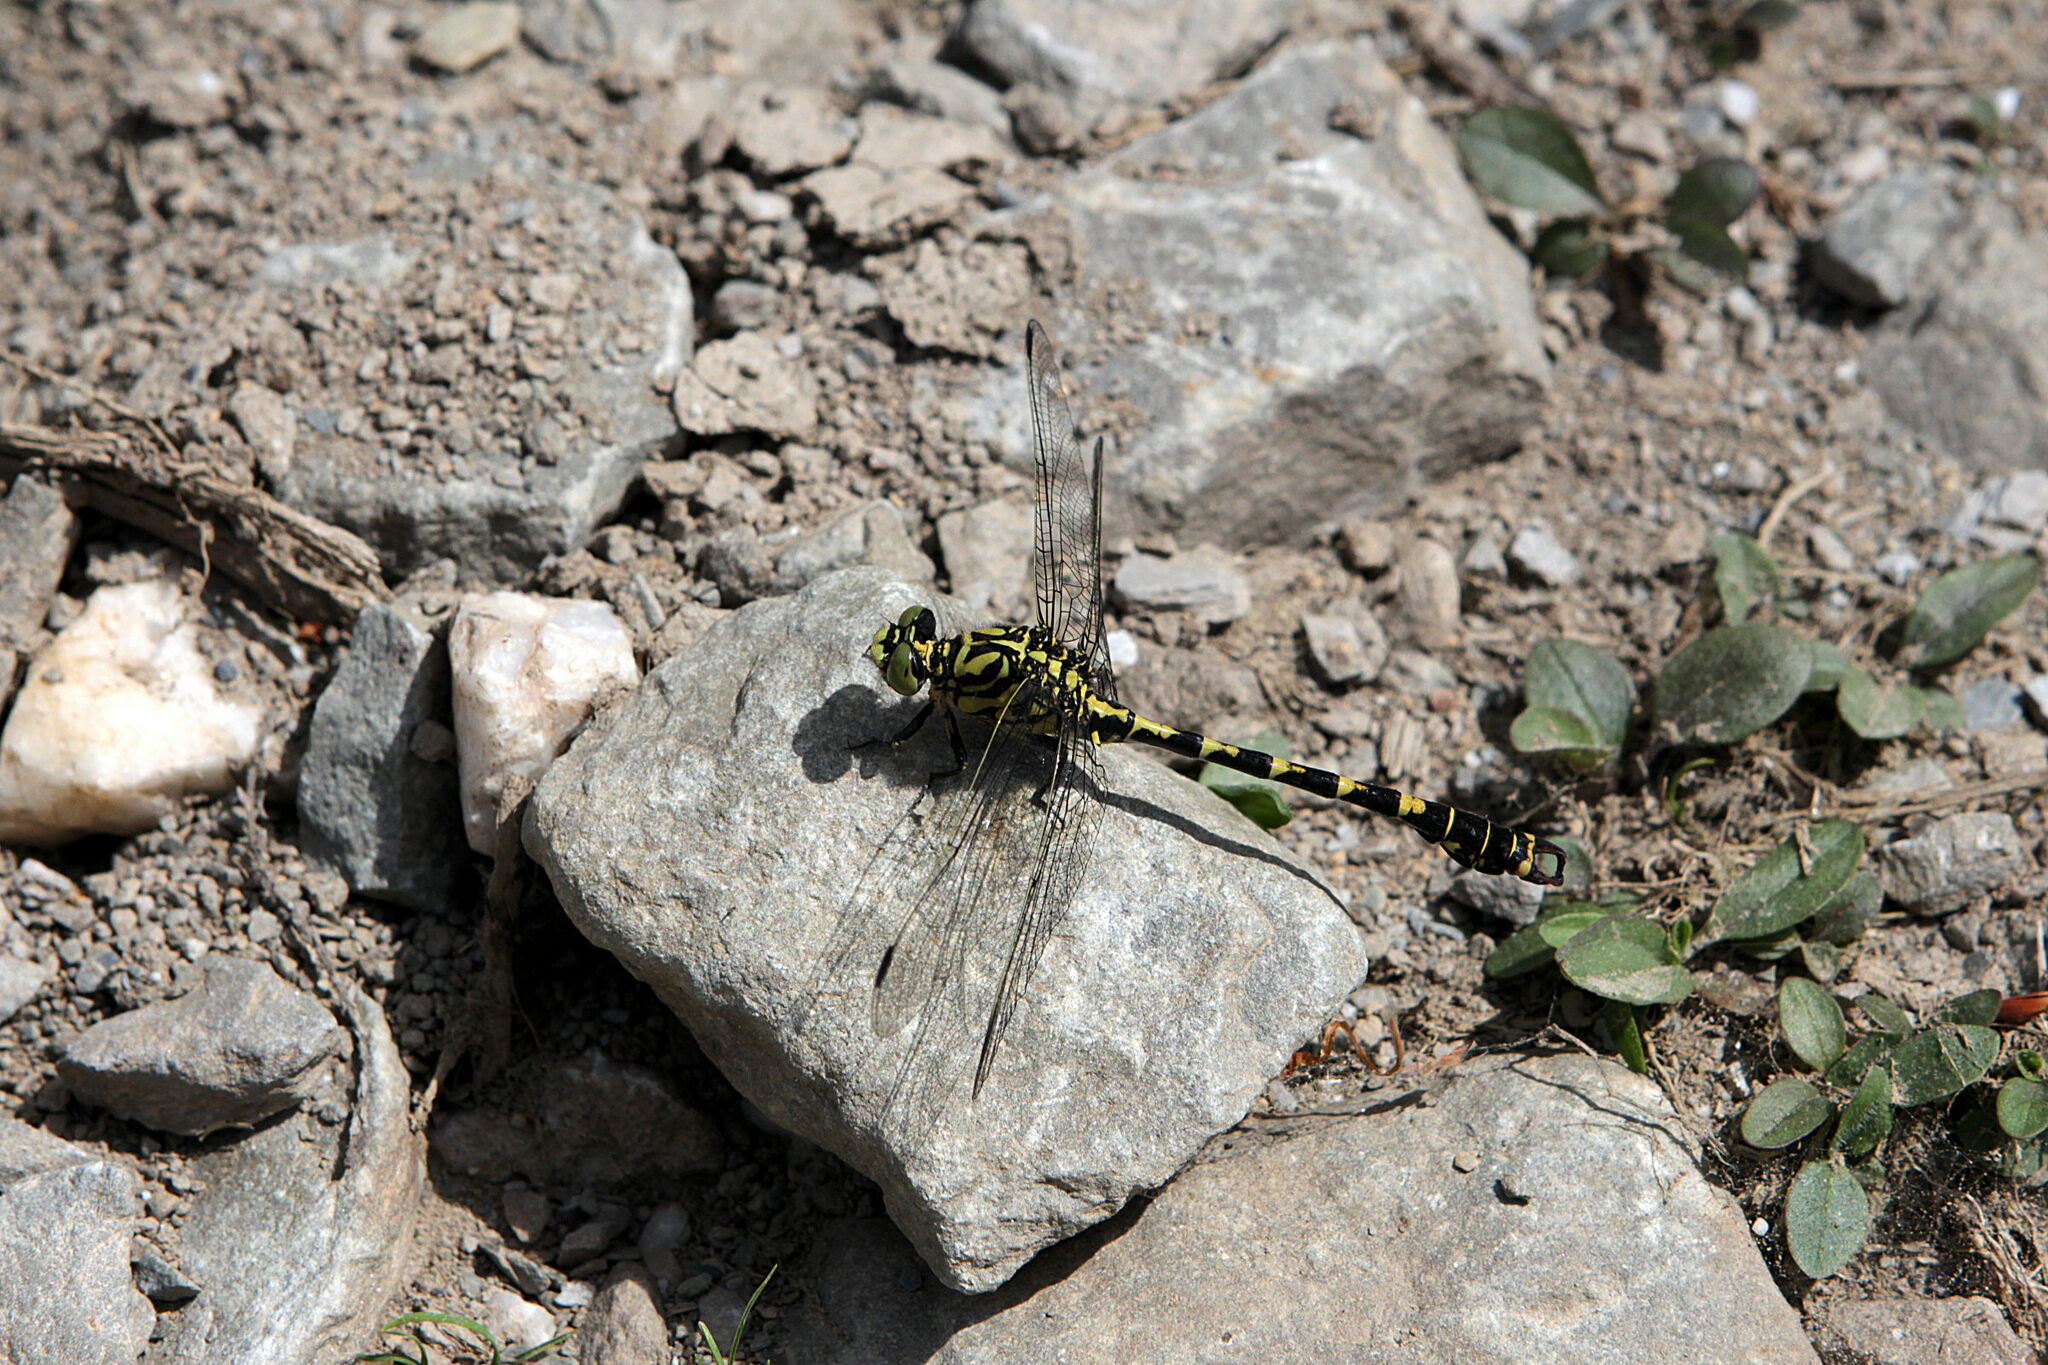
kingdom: Animalia
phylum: Arthropoda
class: Insecta
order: Odonata
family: Gomphidae
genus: Onychogomphus
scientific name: Onychogomphus forcipatus
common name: Small pincertail
